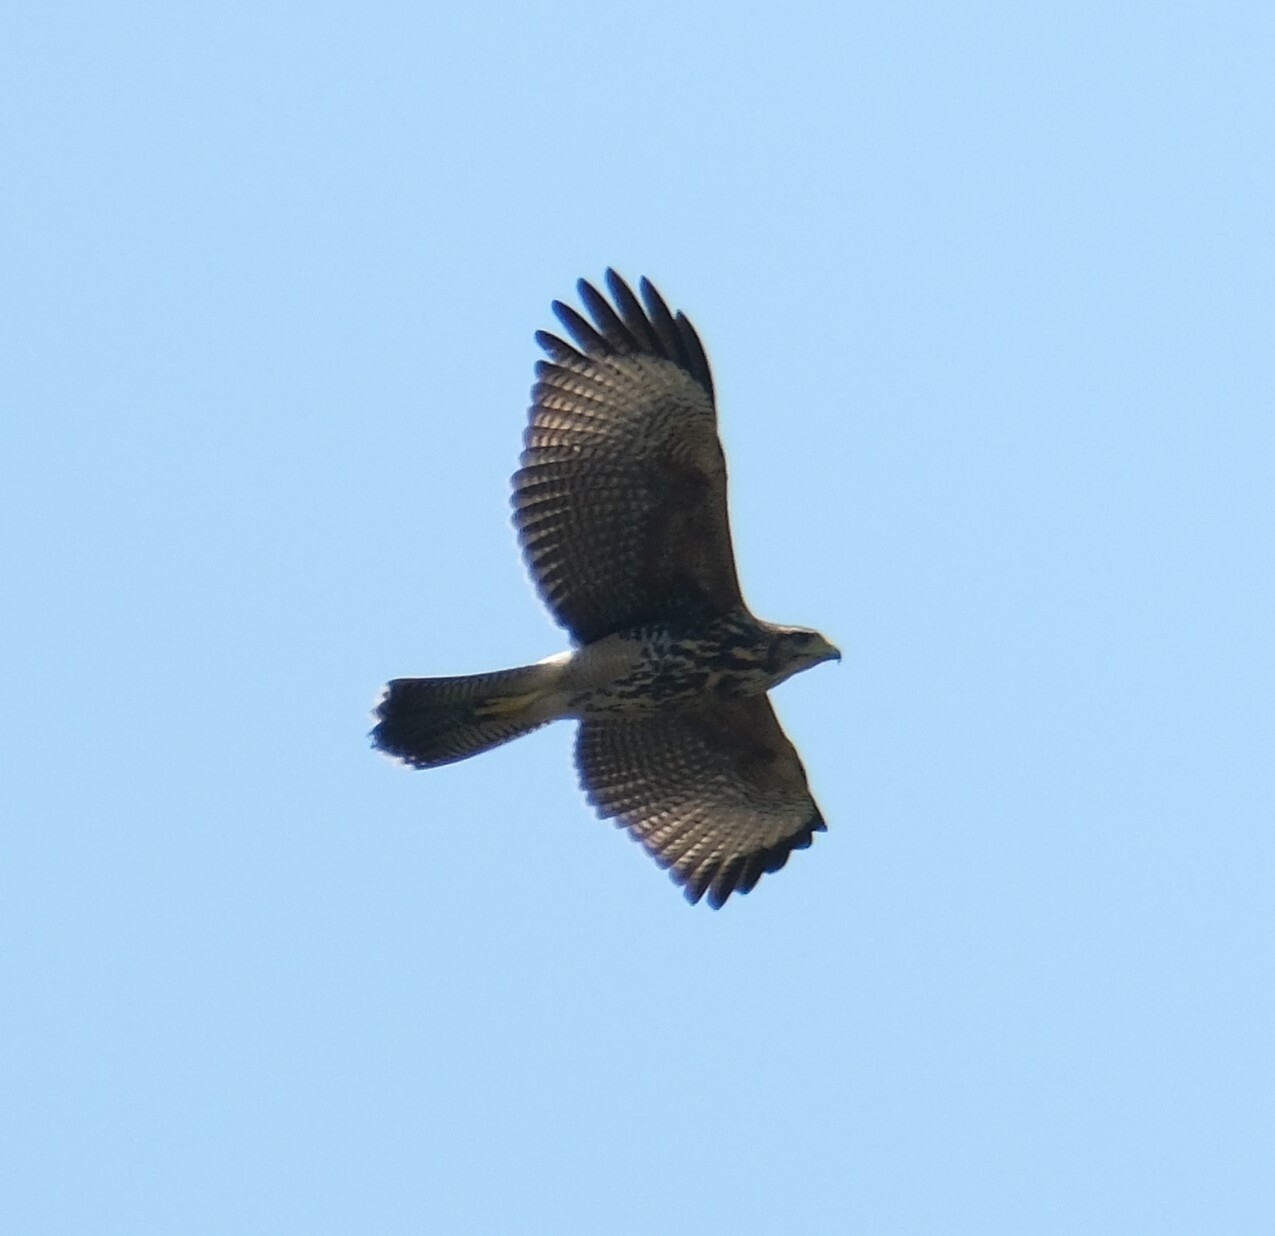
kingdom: Animalia
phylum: Chordata
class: Aves
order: Accipitriformes
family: Accipitridae
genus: Parabuteo
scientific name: Parabuteo unicinctus
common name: Harris's hawk
